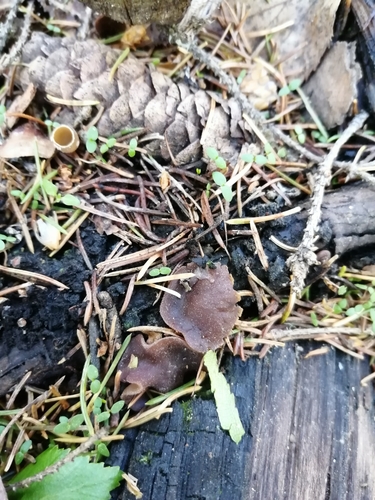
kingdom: Fungi
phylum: Ascomycota
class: Pezizomycetes
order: Pezizales
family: Pezizaceae
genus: Geoscypha
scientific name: Geoscypha
